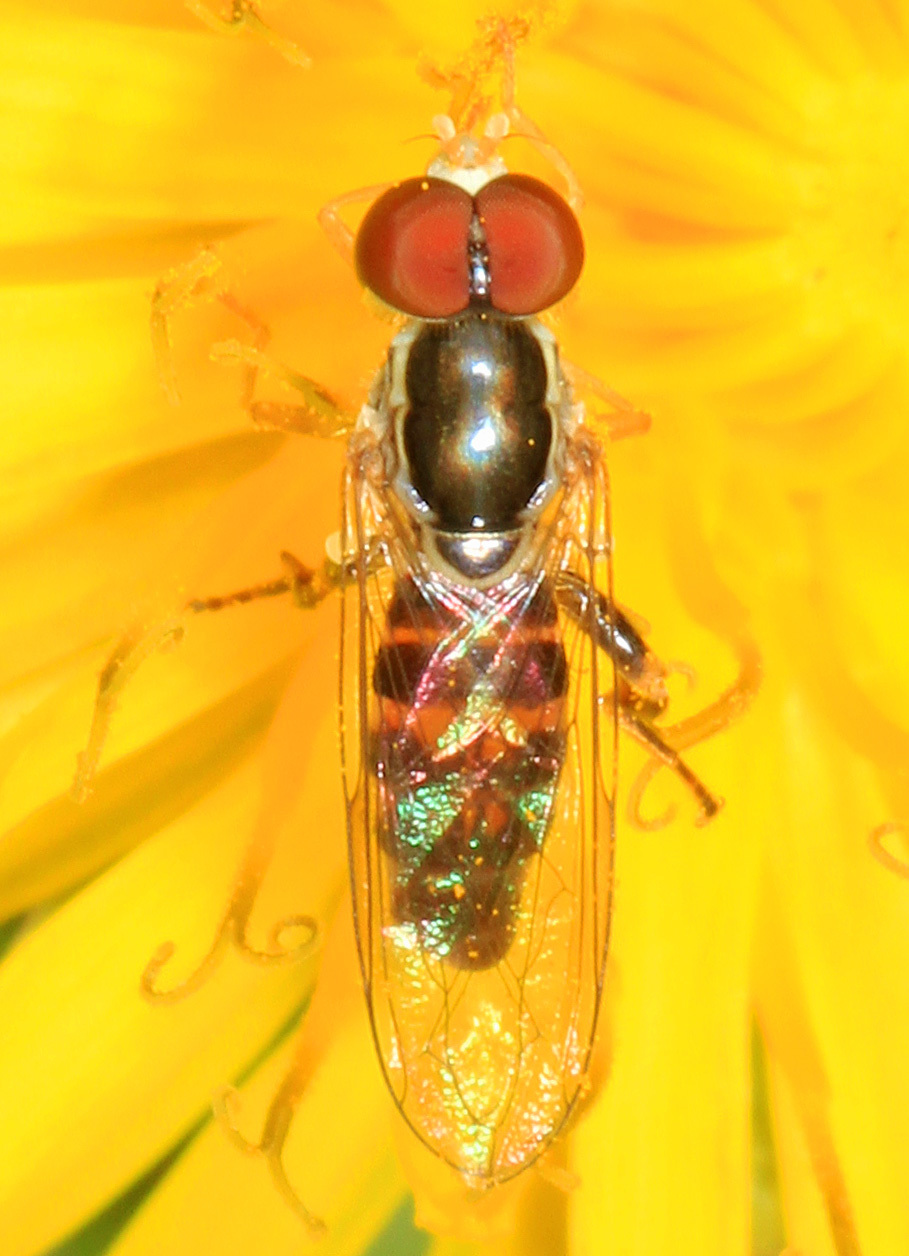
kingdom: Animalia
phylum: Arthropoda
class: Insecta
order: Diptera
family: Syrphidae
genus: Toxomerus
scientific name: Toxomerus geminatus
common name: Eastern calligrapher
